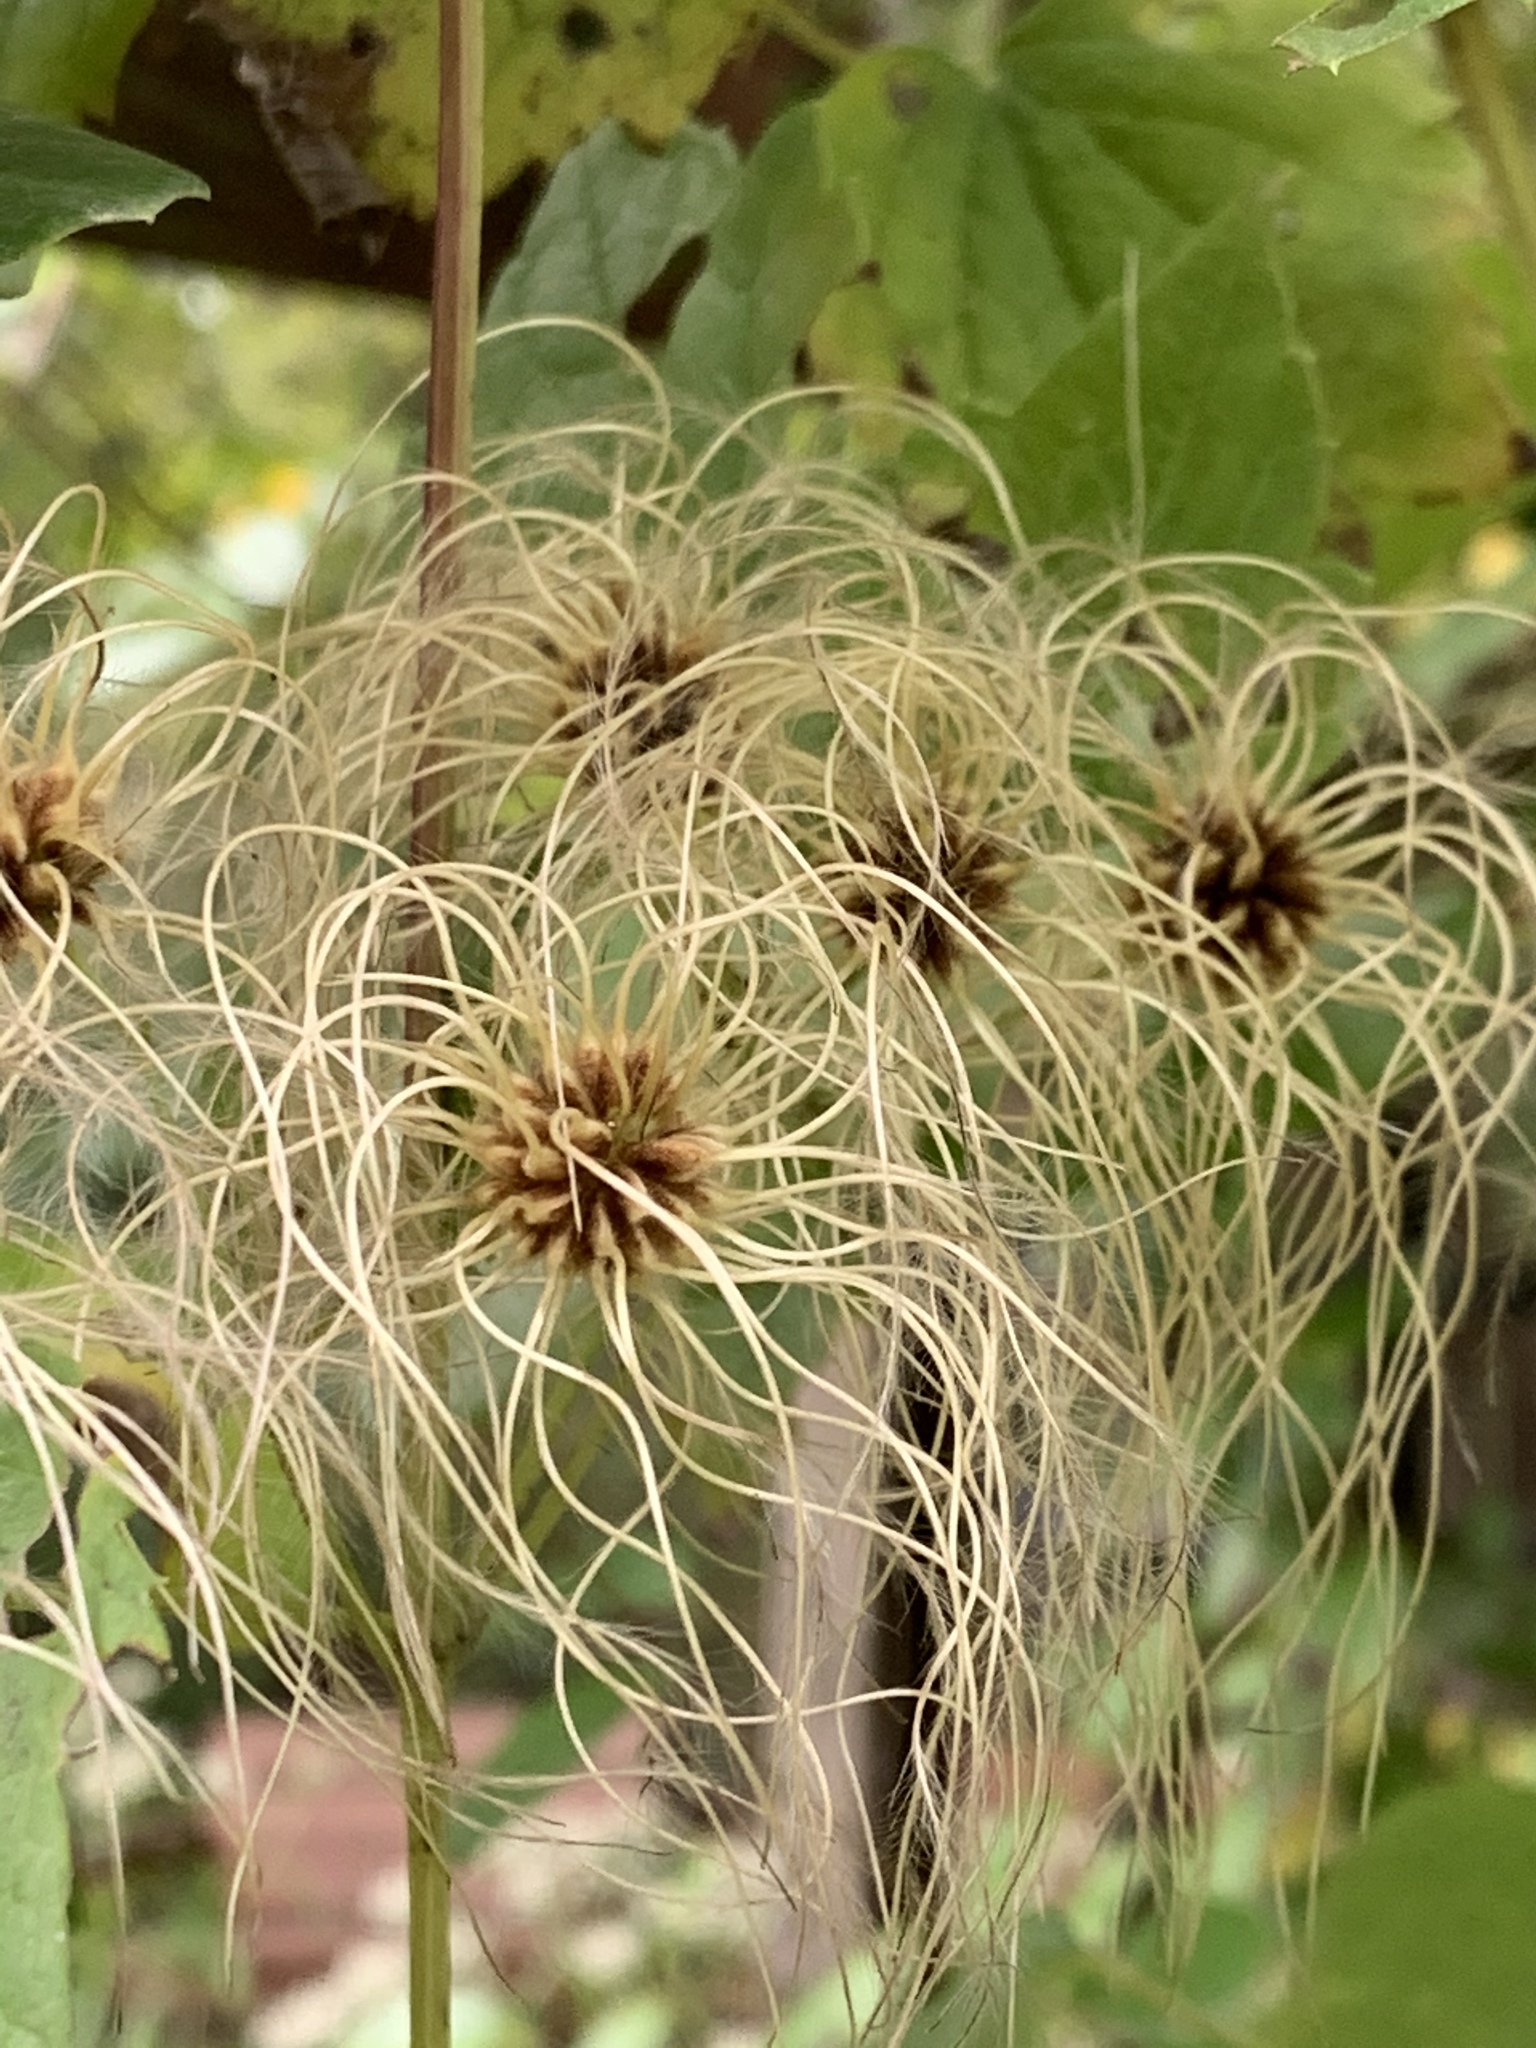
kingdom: Plantae
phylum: Tracheophyta
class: Magnoliopsida
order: Ranunculales
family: Ranunculaceae
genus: Clematis
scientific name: Clematis virginiana
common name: Virgin's-bower
